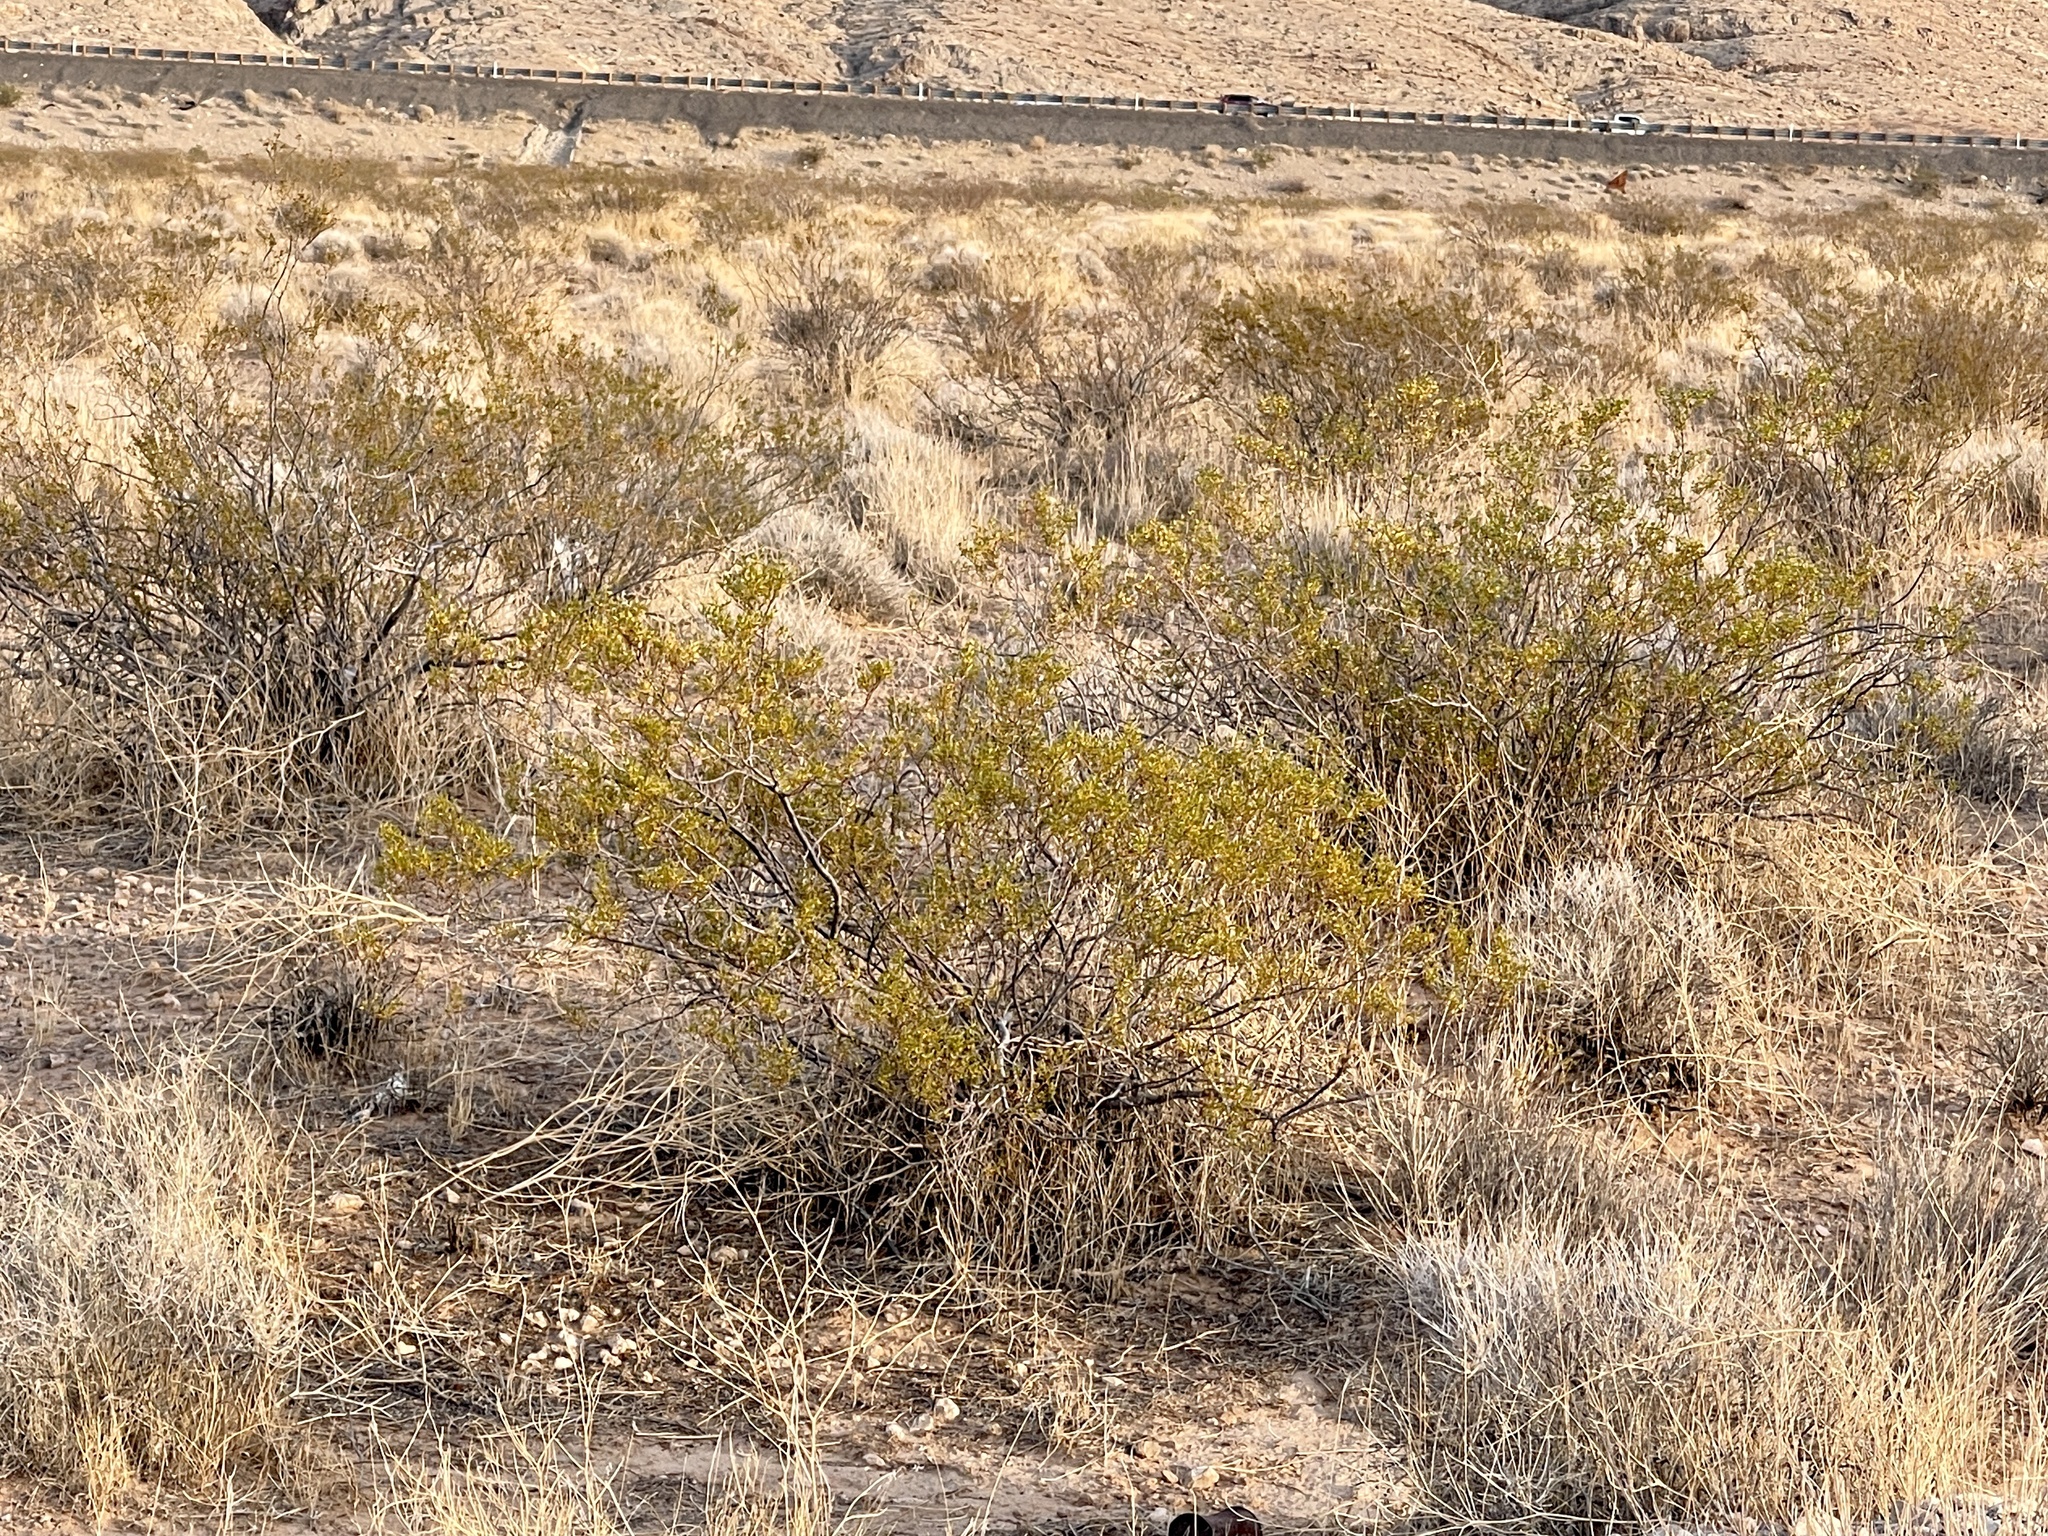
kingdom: Plantae
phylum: Tracheophyta
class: Magnoliopsida
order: Zygophyllales
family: Zygophyllaceae
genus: Larrea
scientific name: Larrea tridentata
